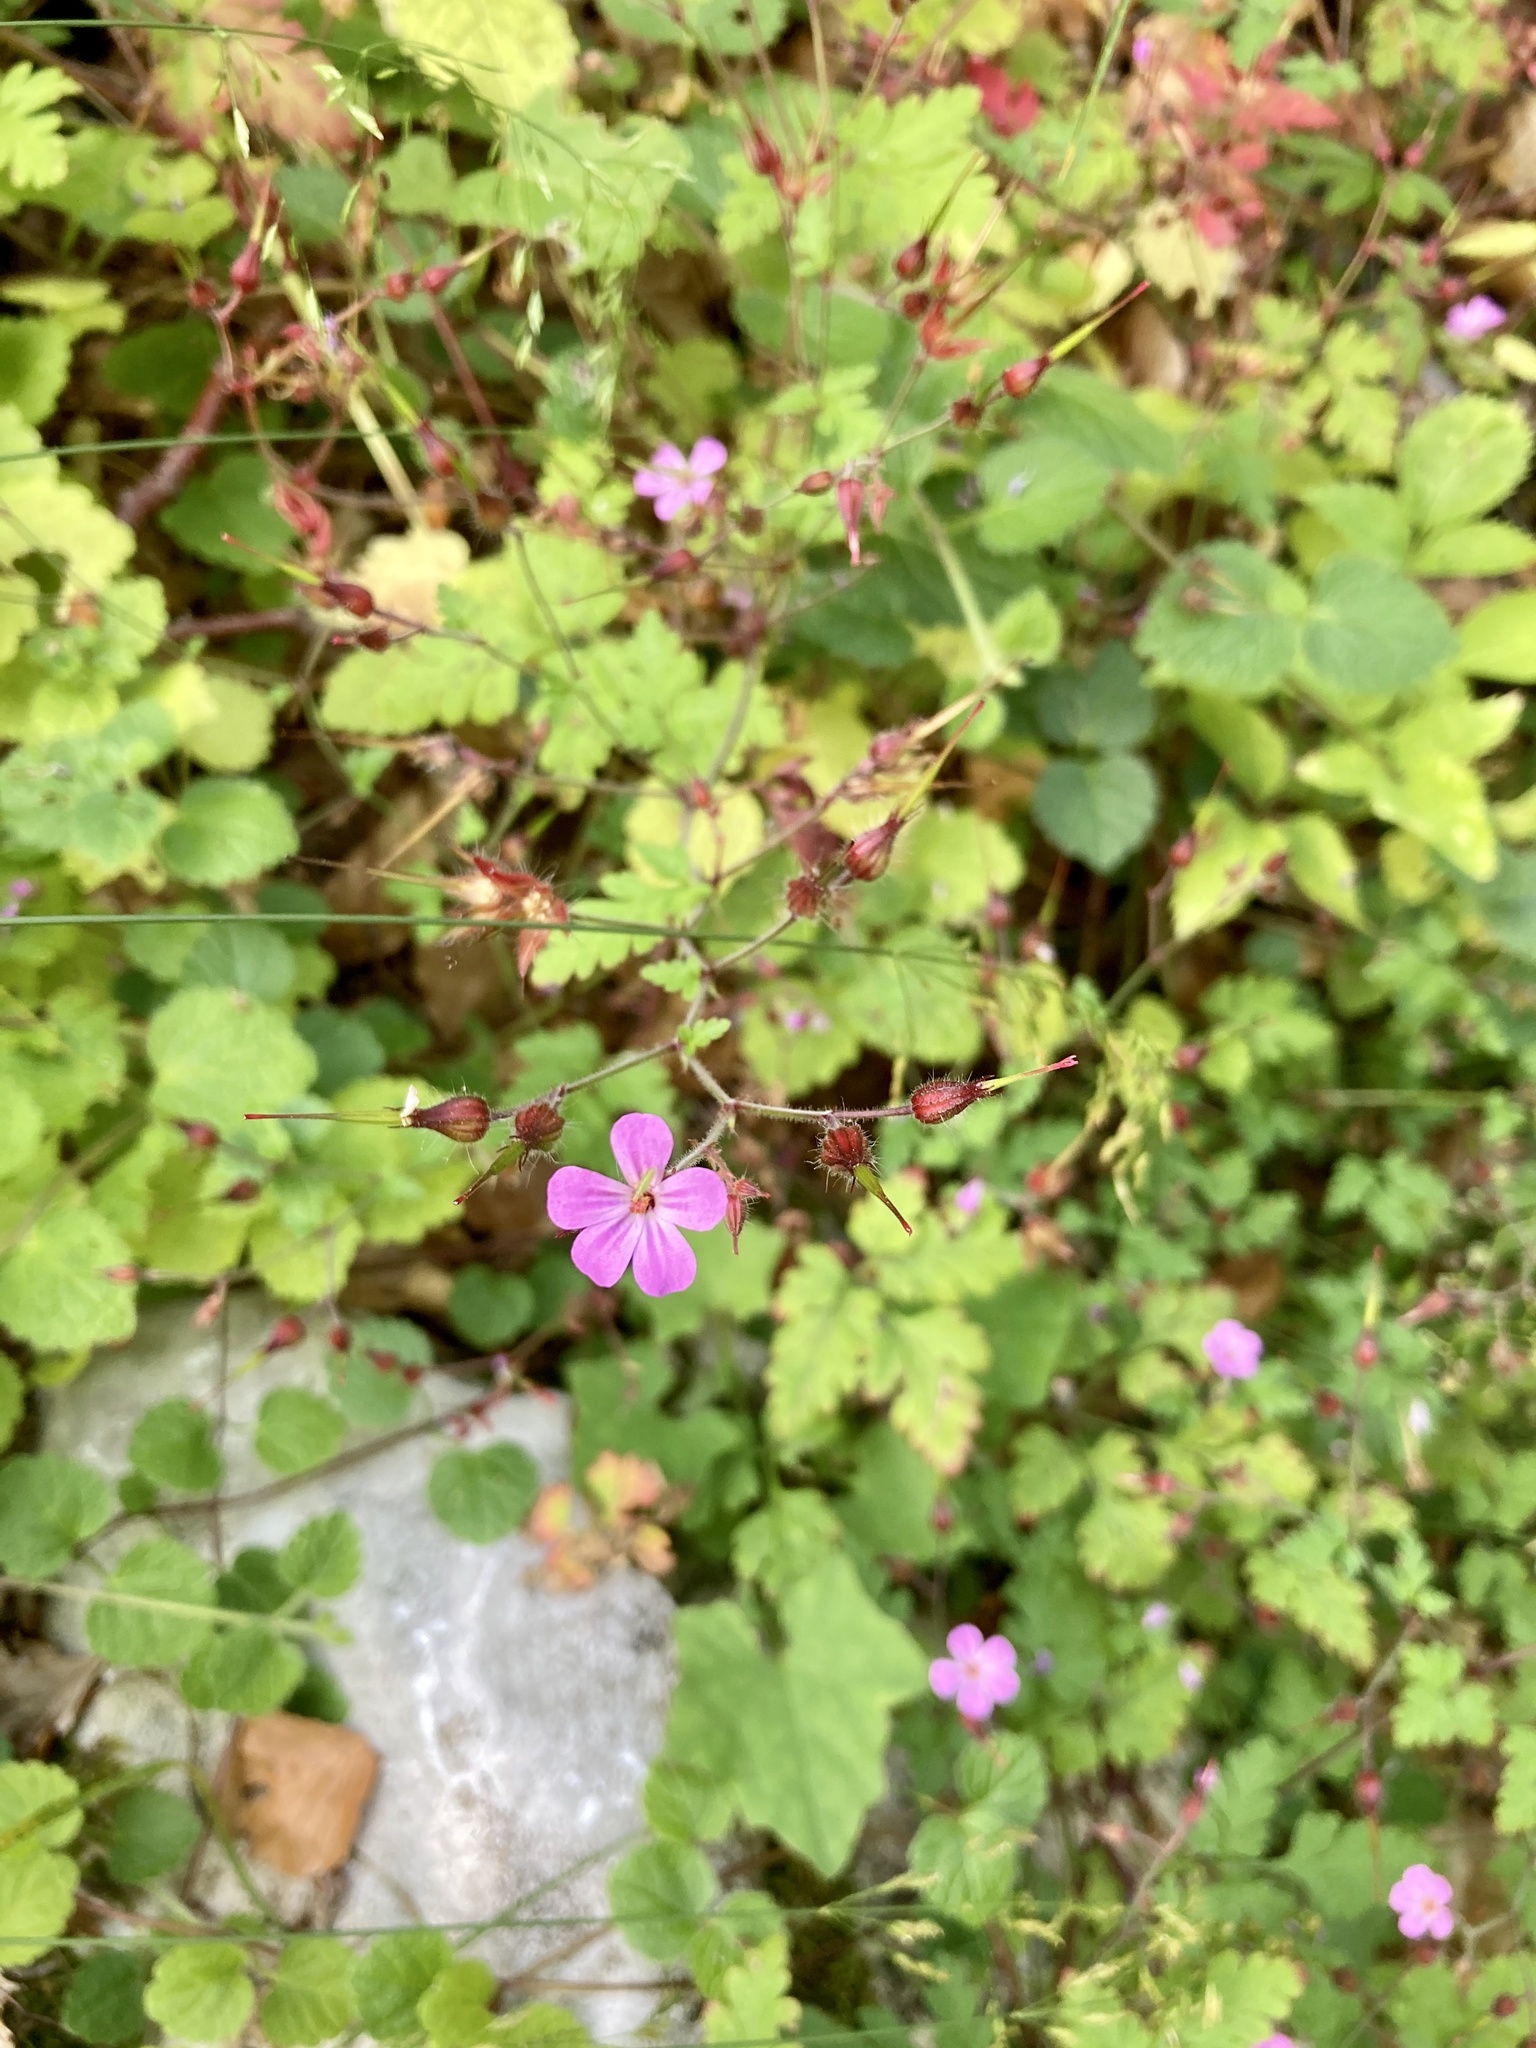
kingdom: Plantae
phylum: Tracheophyta
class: Magnoliopsida
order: Geraniales
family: Geraniaceae
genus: Geranium
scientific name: Geranium robertianum
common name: Herb-robert
